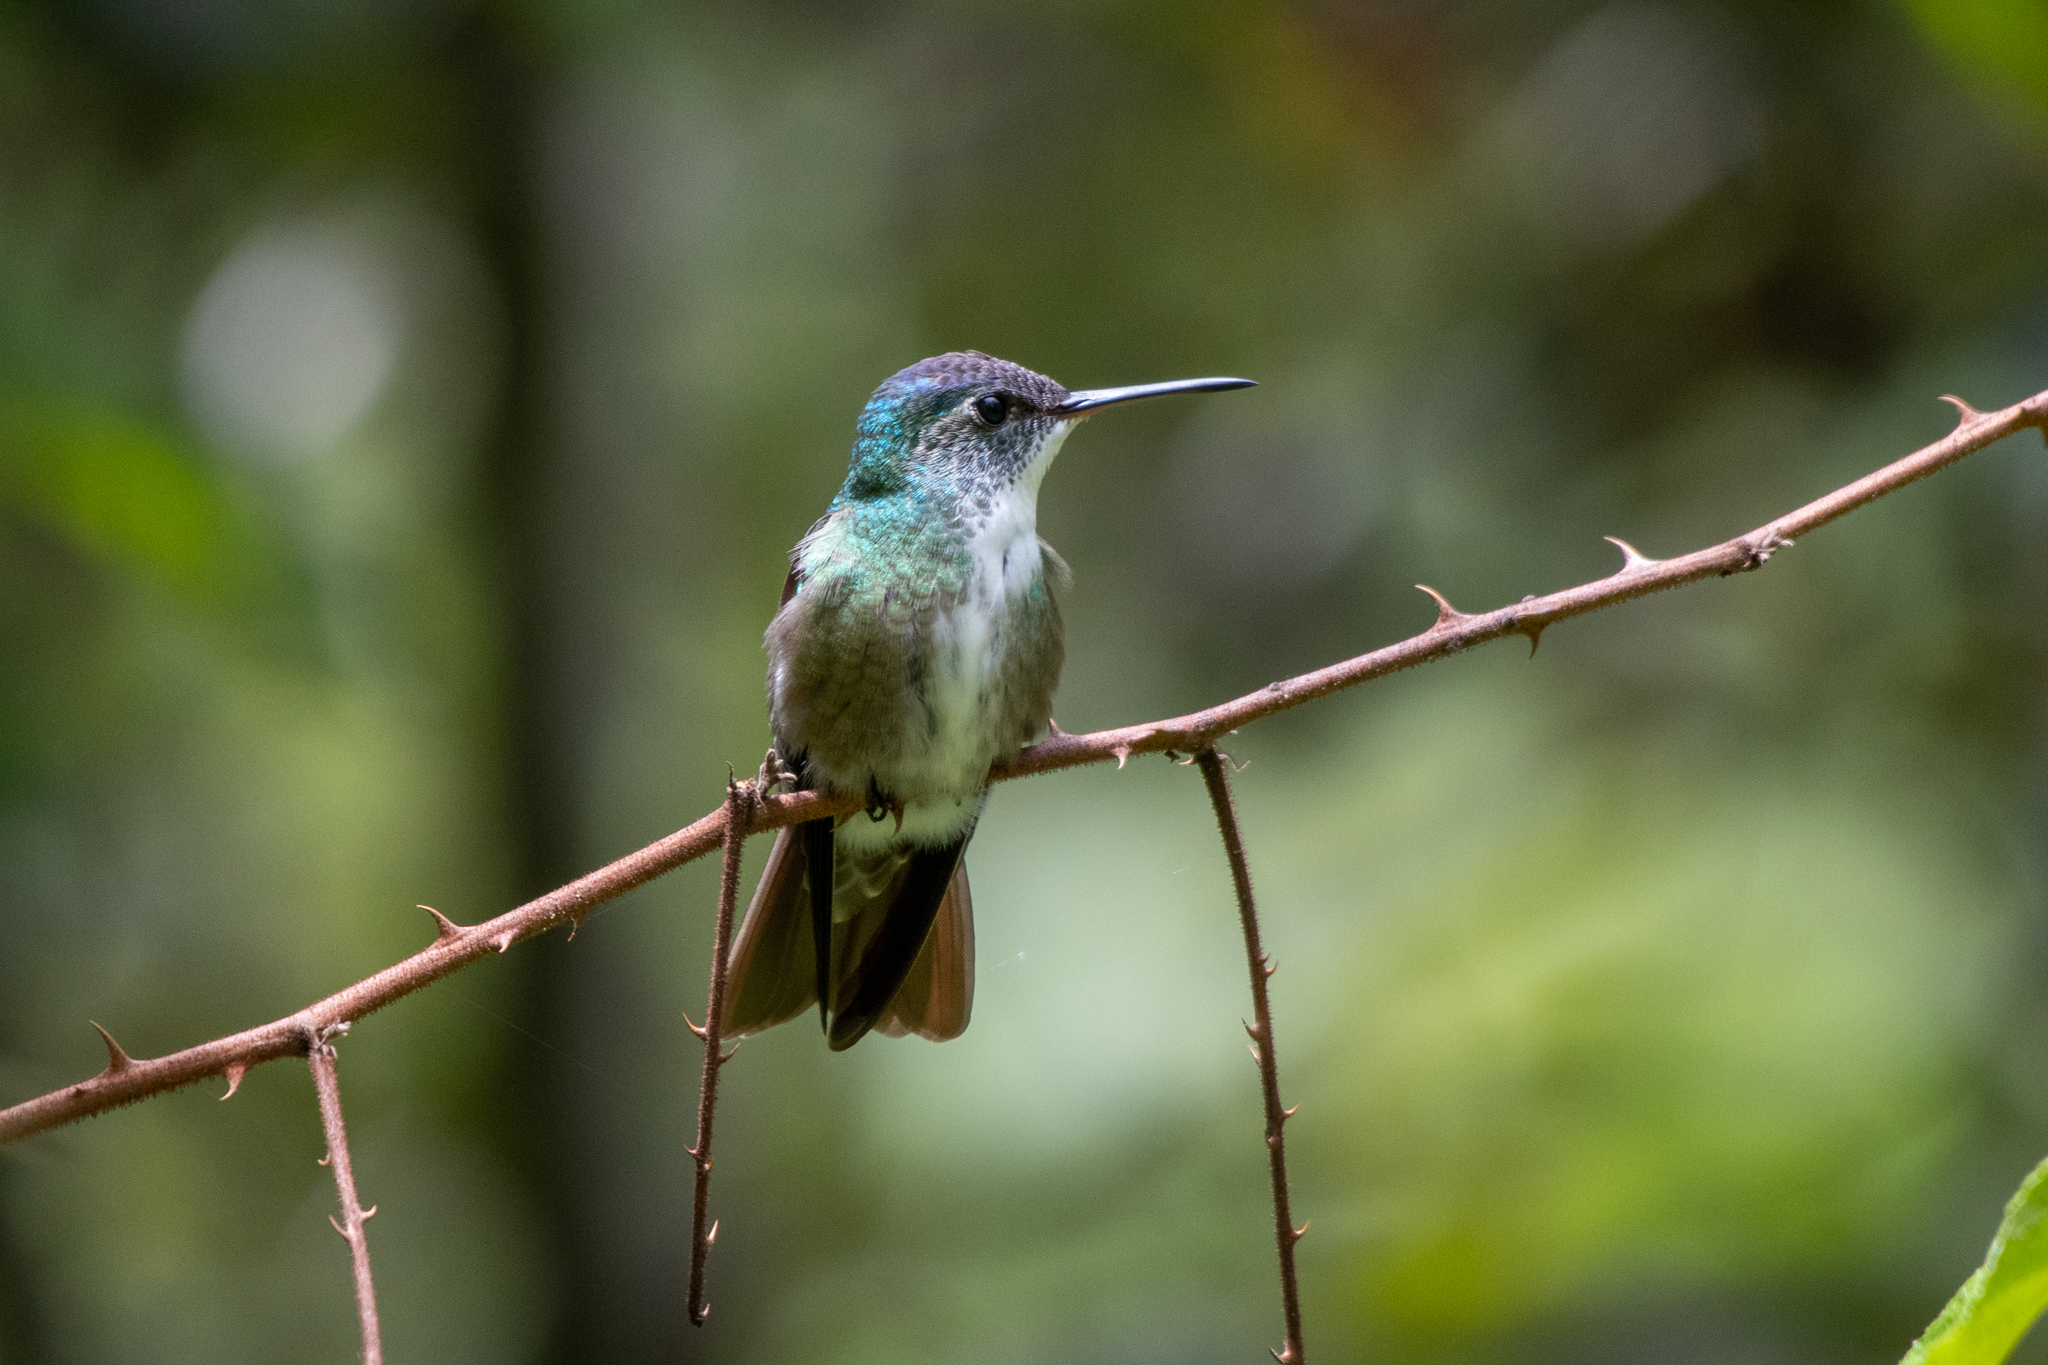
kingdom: Animalia
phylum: Chordata
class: Aves
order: Apodiformes
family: Trochilidae
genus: Saucerottia
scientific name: Saucerottia cyanocephala
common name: Azure-crowned hummingbird
